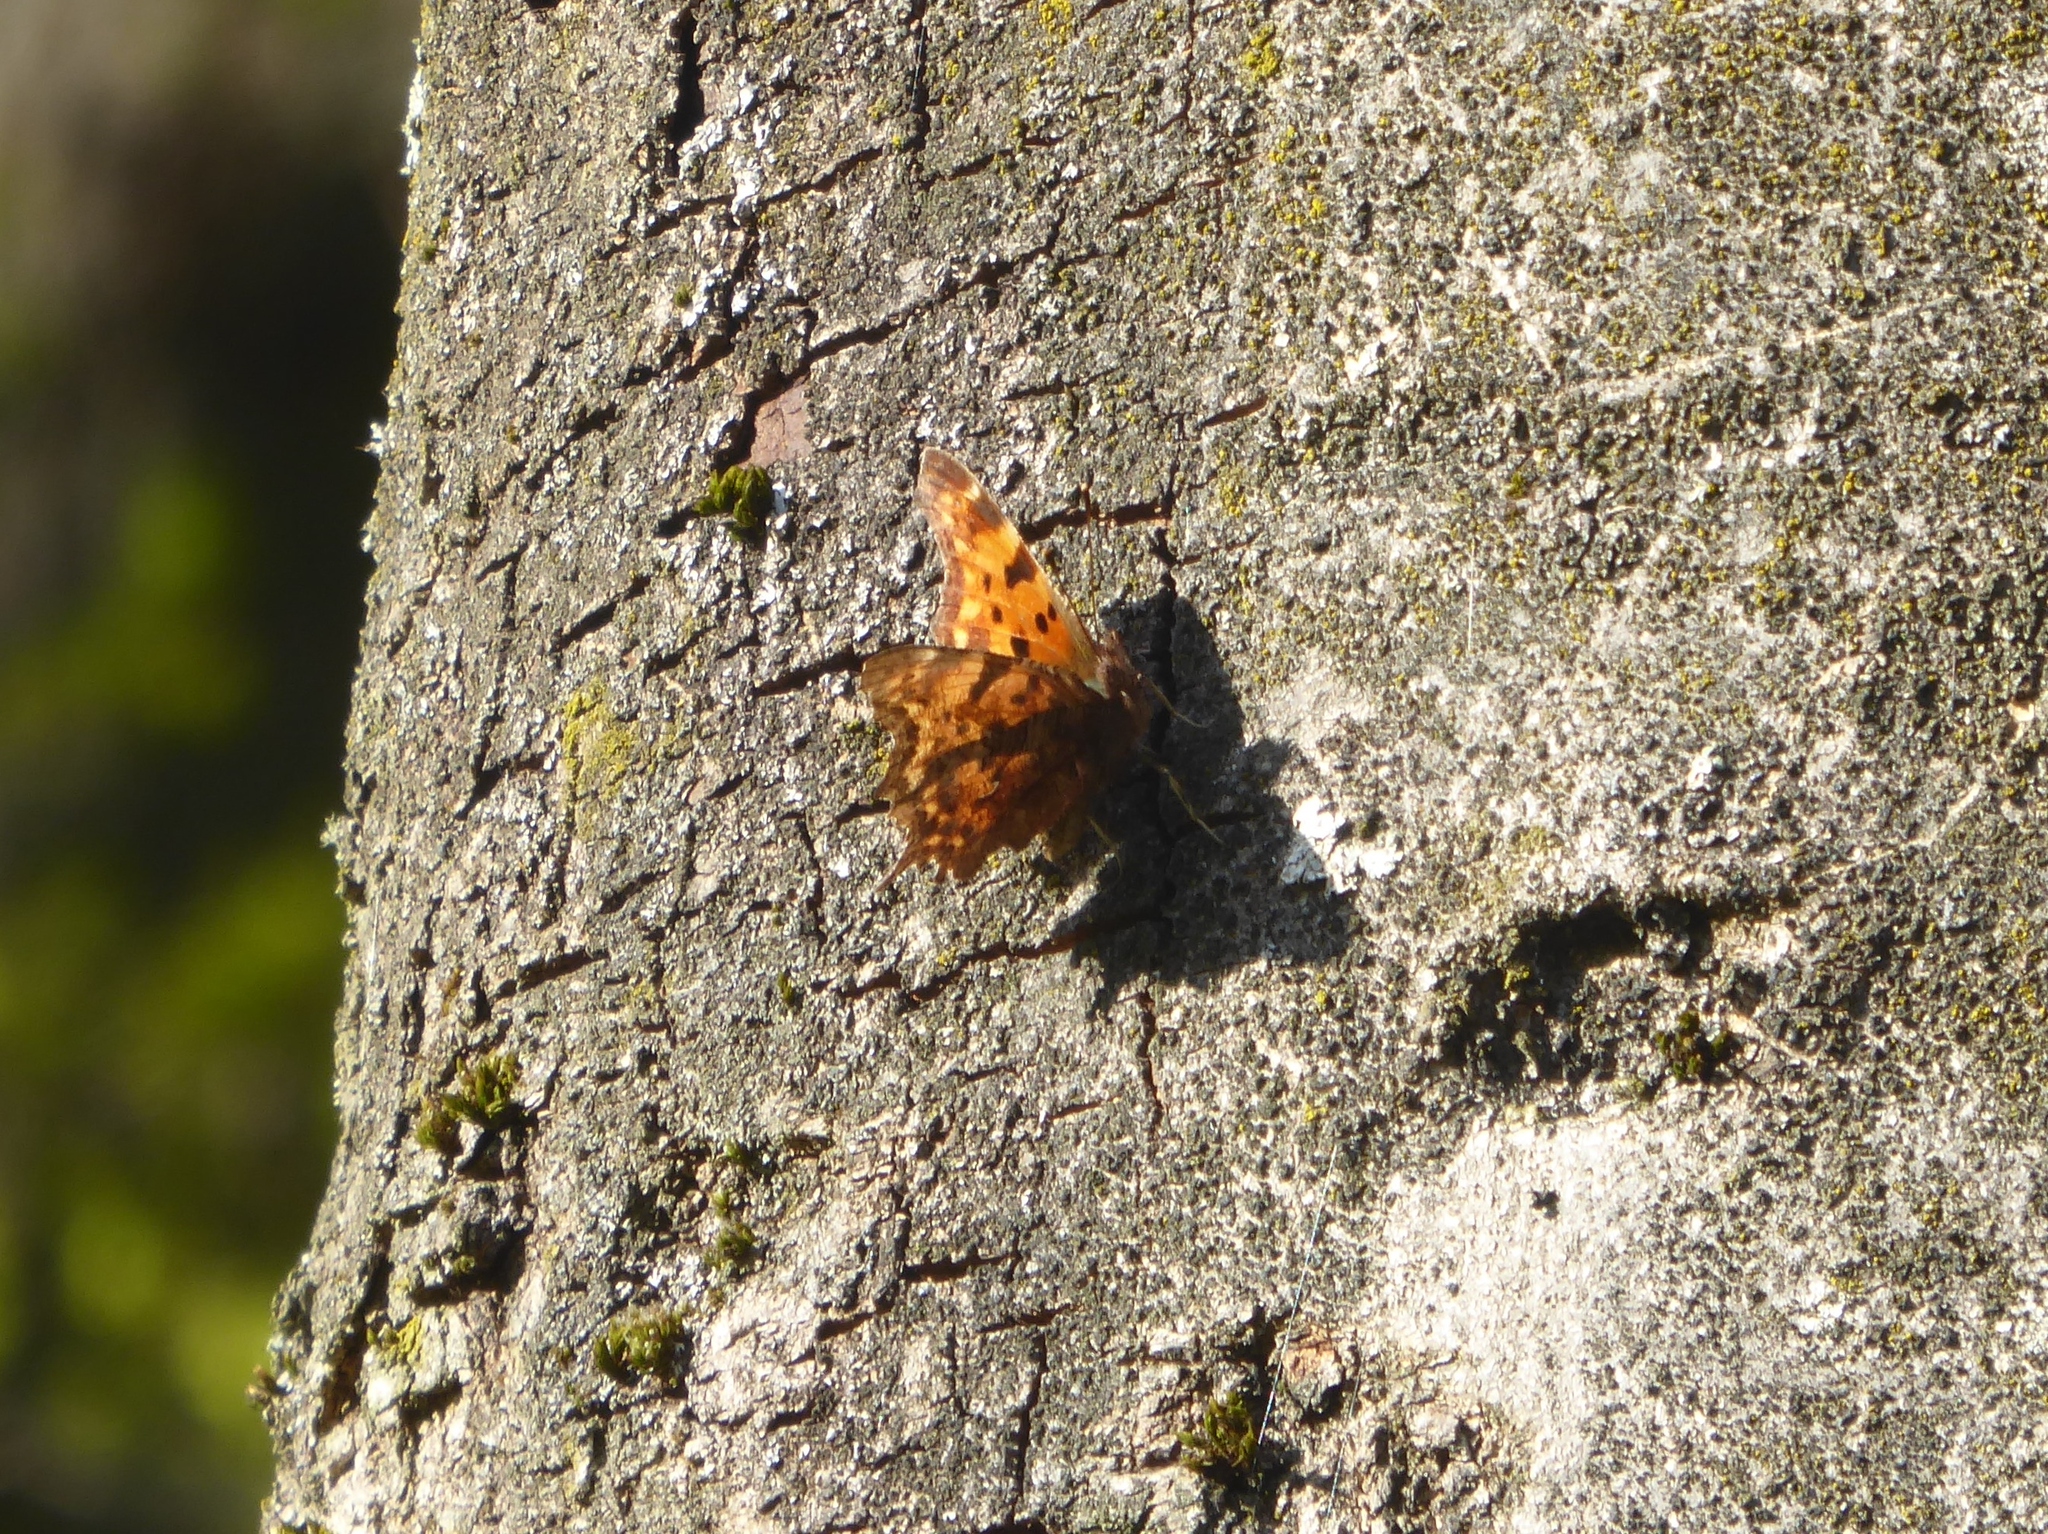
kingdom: Animalia
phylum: Arthropoda
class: Insecta
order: Lepidoptera
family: Nymphalidae
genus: Polygonia
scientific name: Polygonia c-album
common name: Comma
